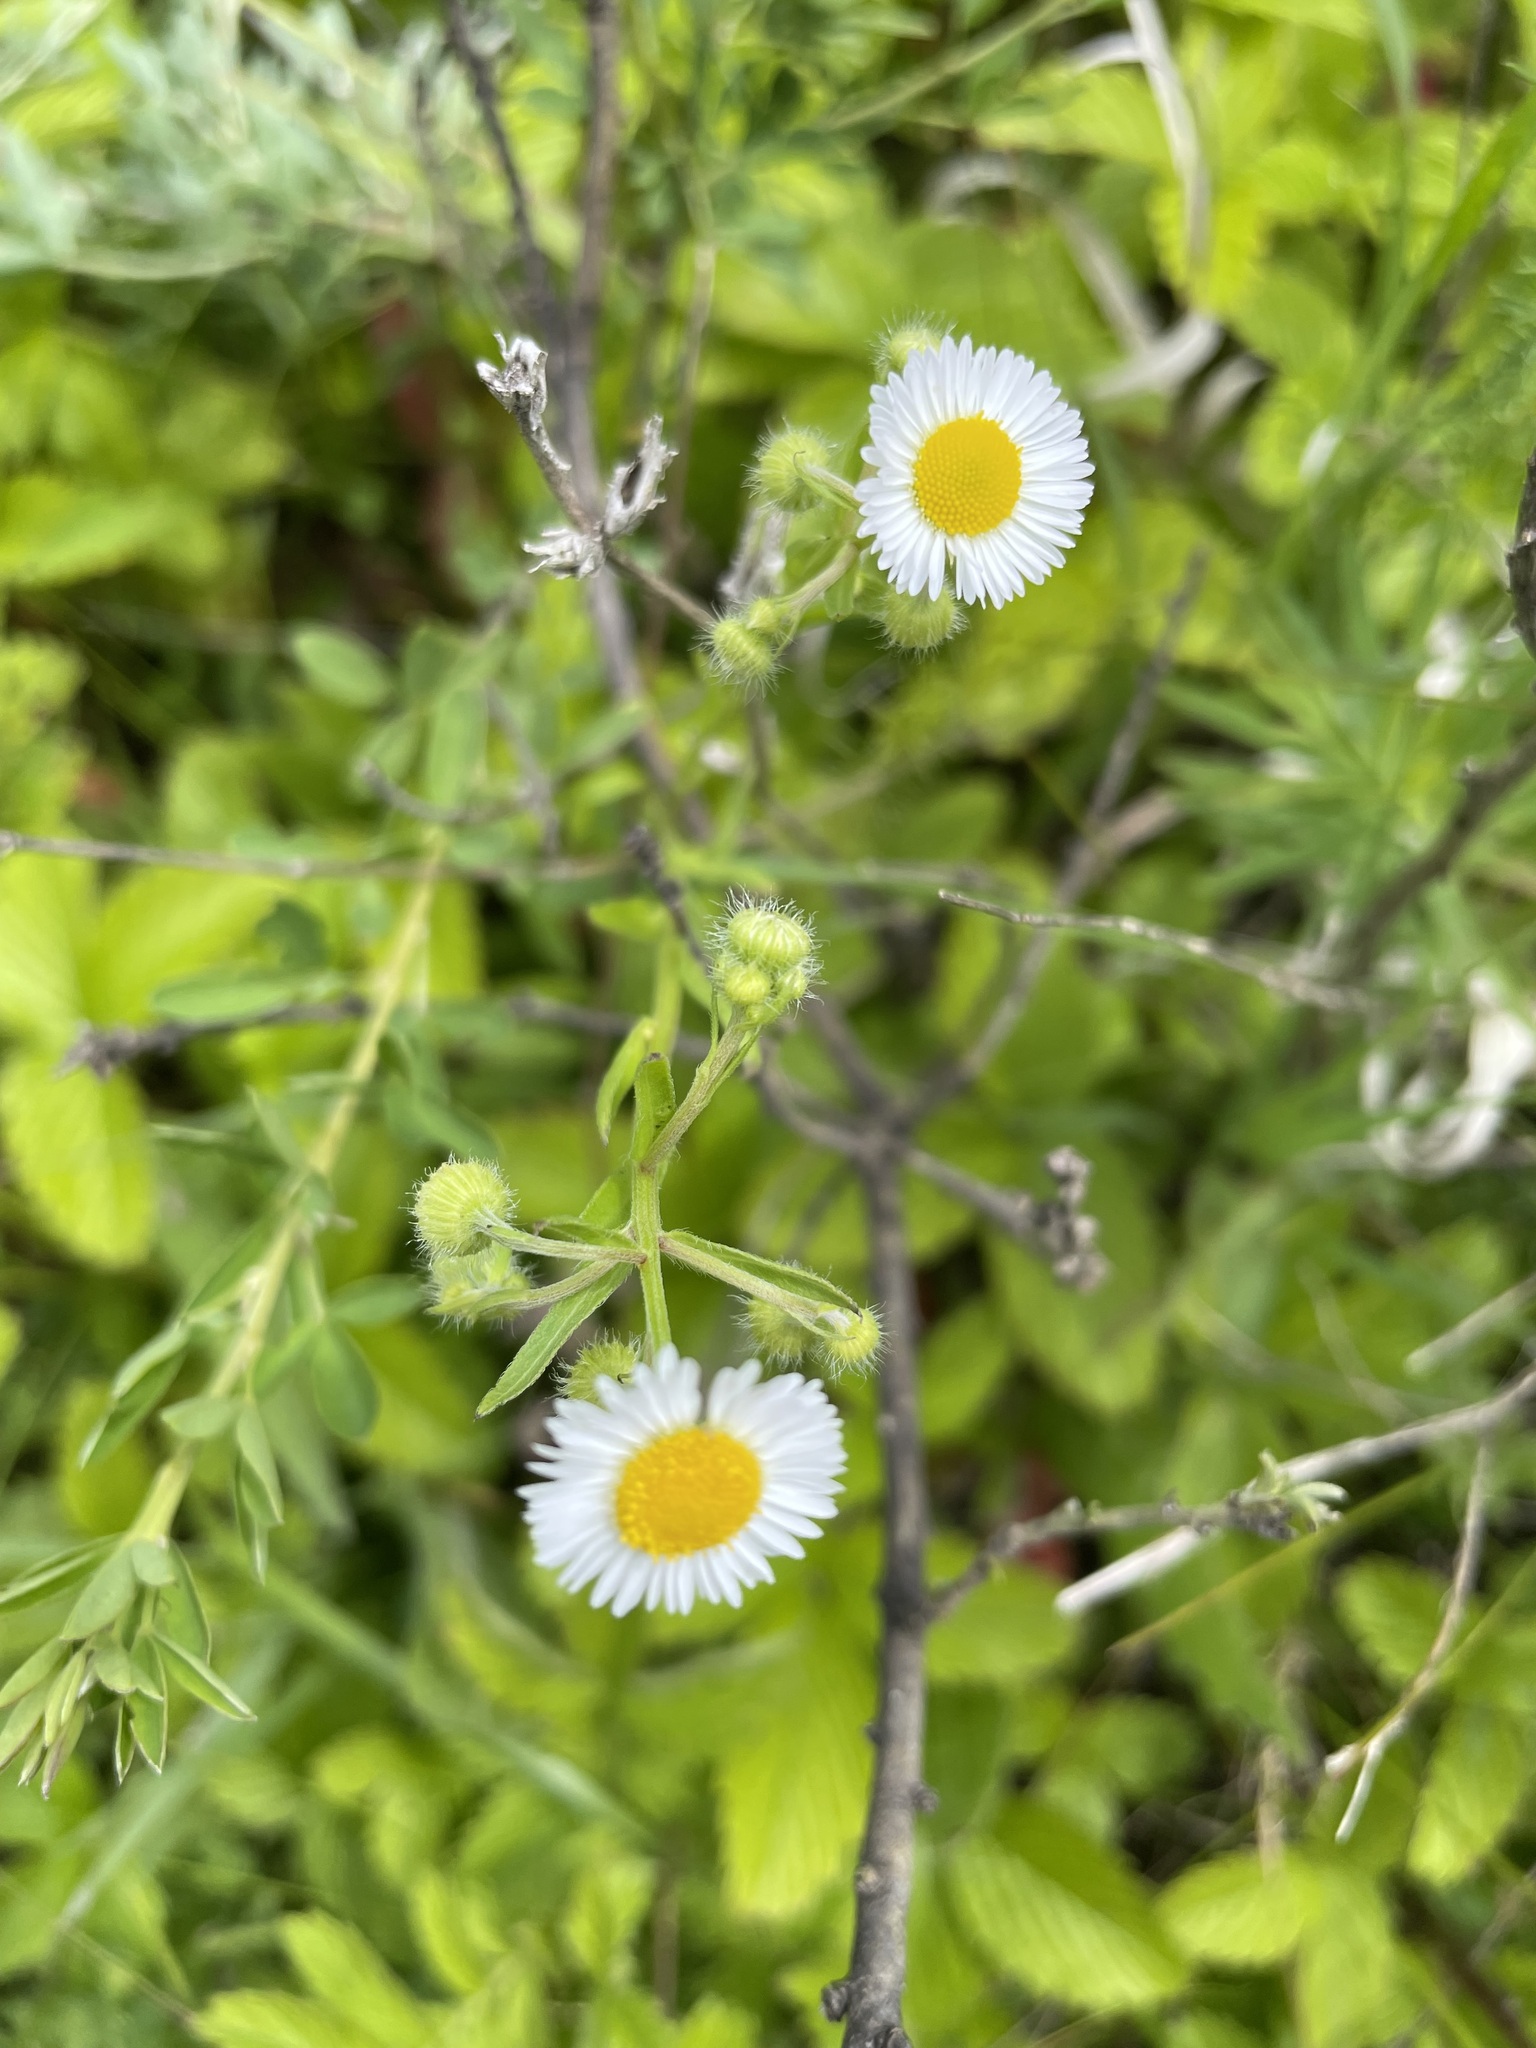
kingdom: Plantae
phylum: Tracheophyta
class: Magnoliopsida
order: Asterales
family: Asteraceae
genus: Erigeron
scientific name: Erigeron strigosus
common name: Common eastern fleabane
